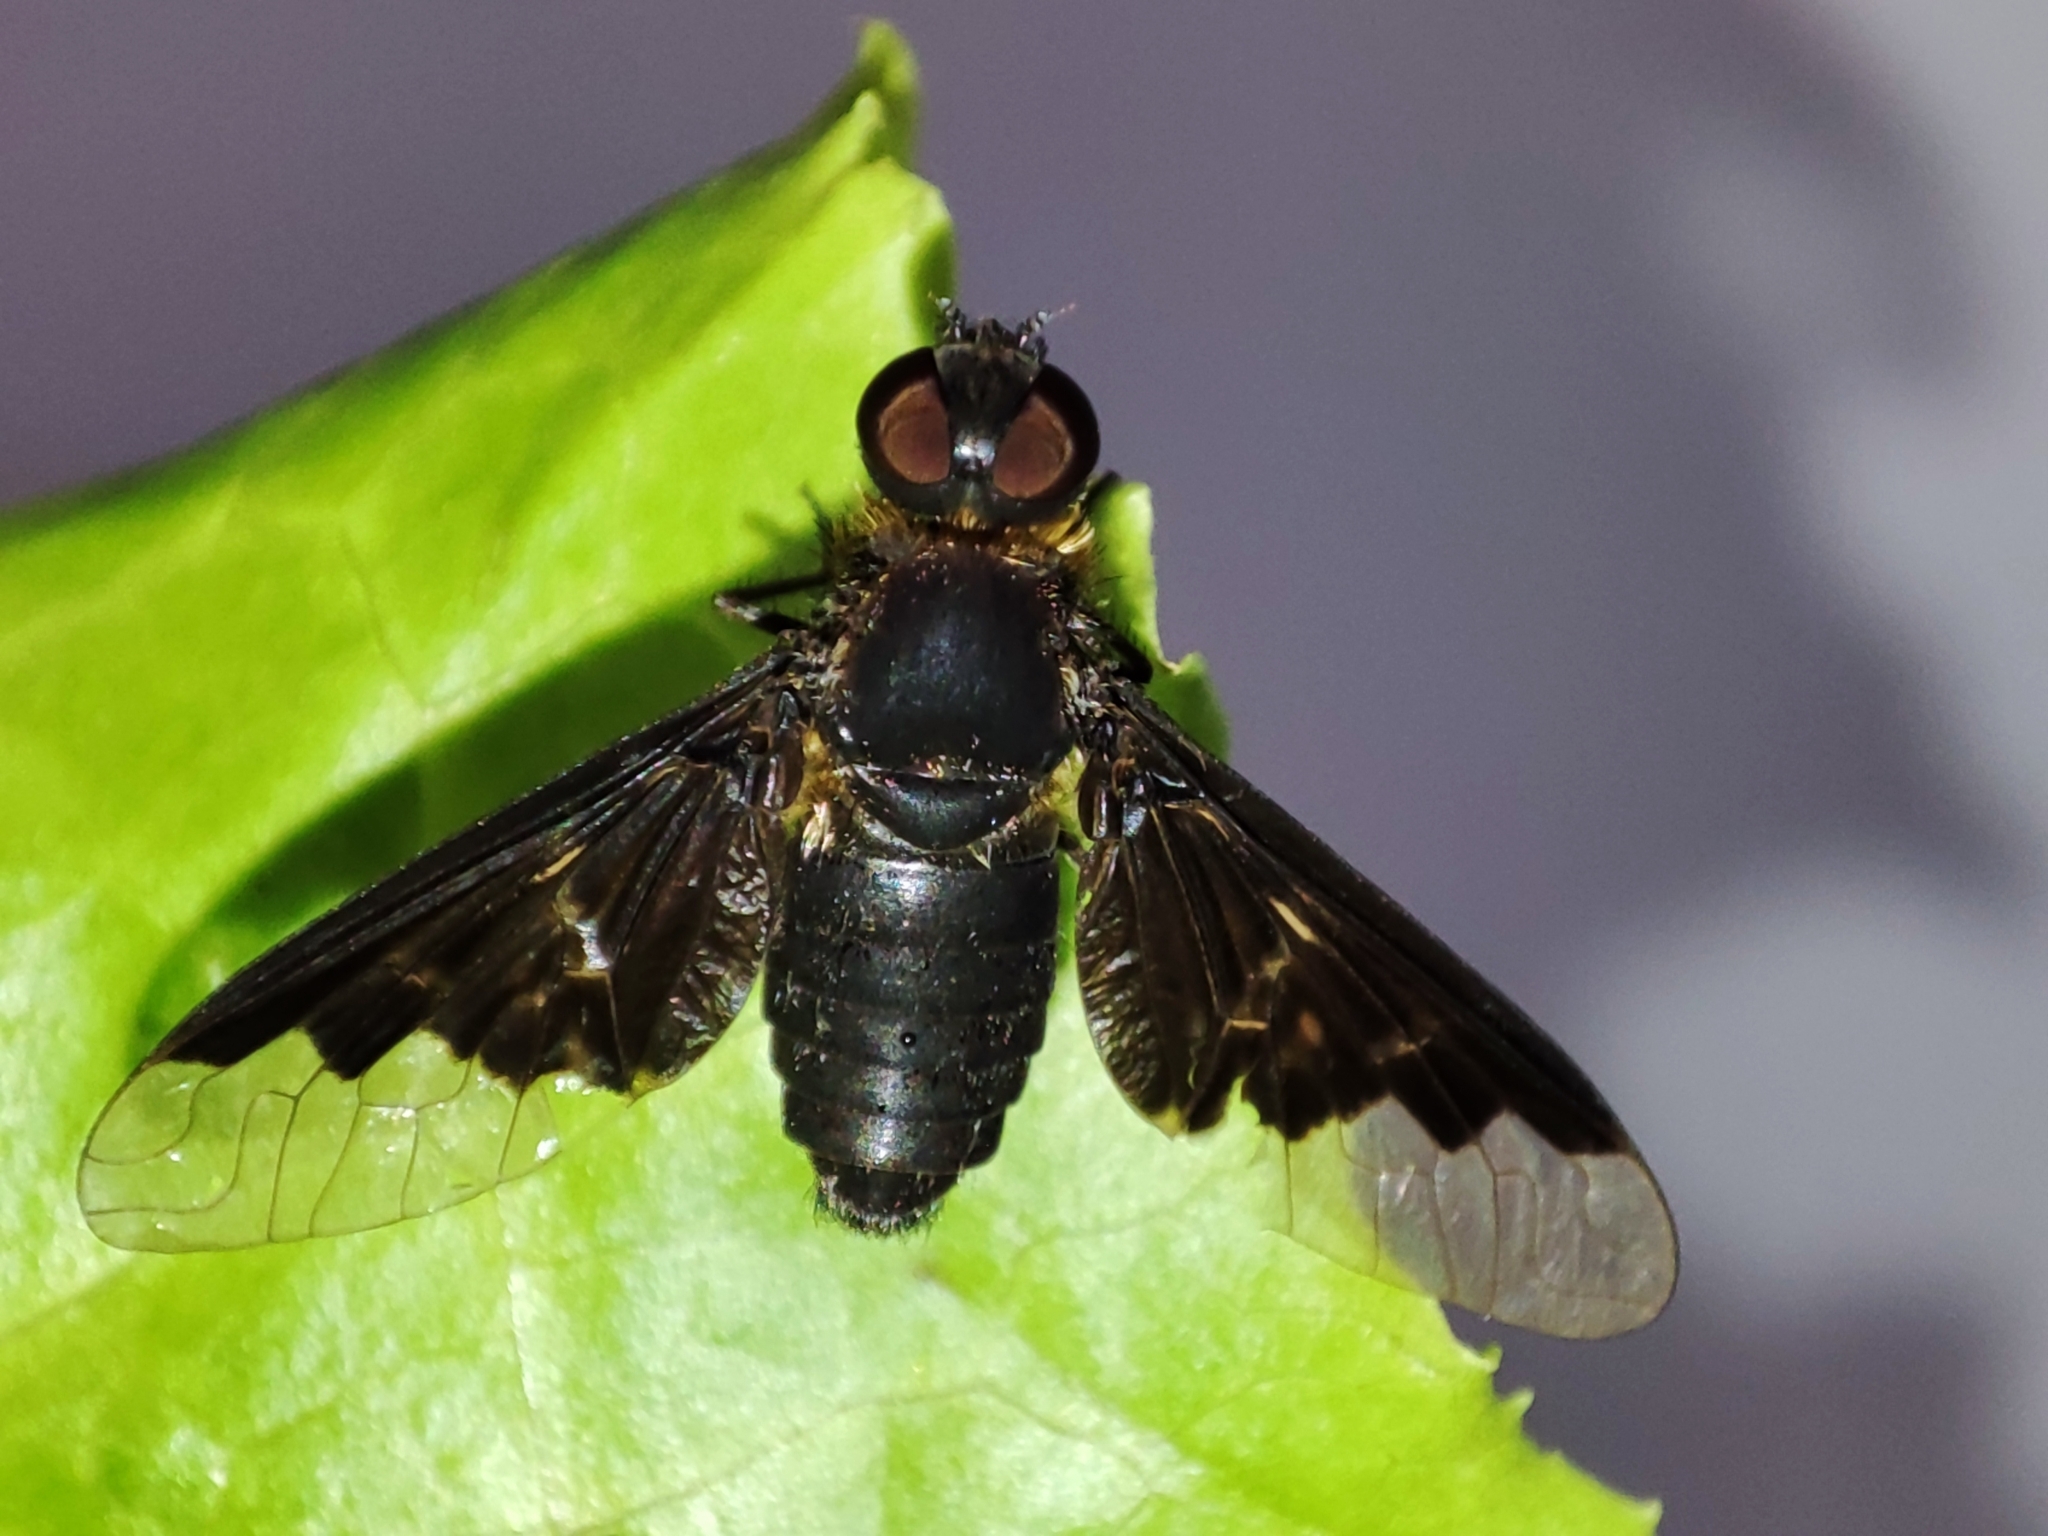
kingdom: Animalia
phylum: Arthropoda
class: Insecta
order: Diptera
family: Bombyliidae
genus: Hemipenthes
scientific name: Hemipenthes morio
